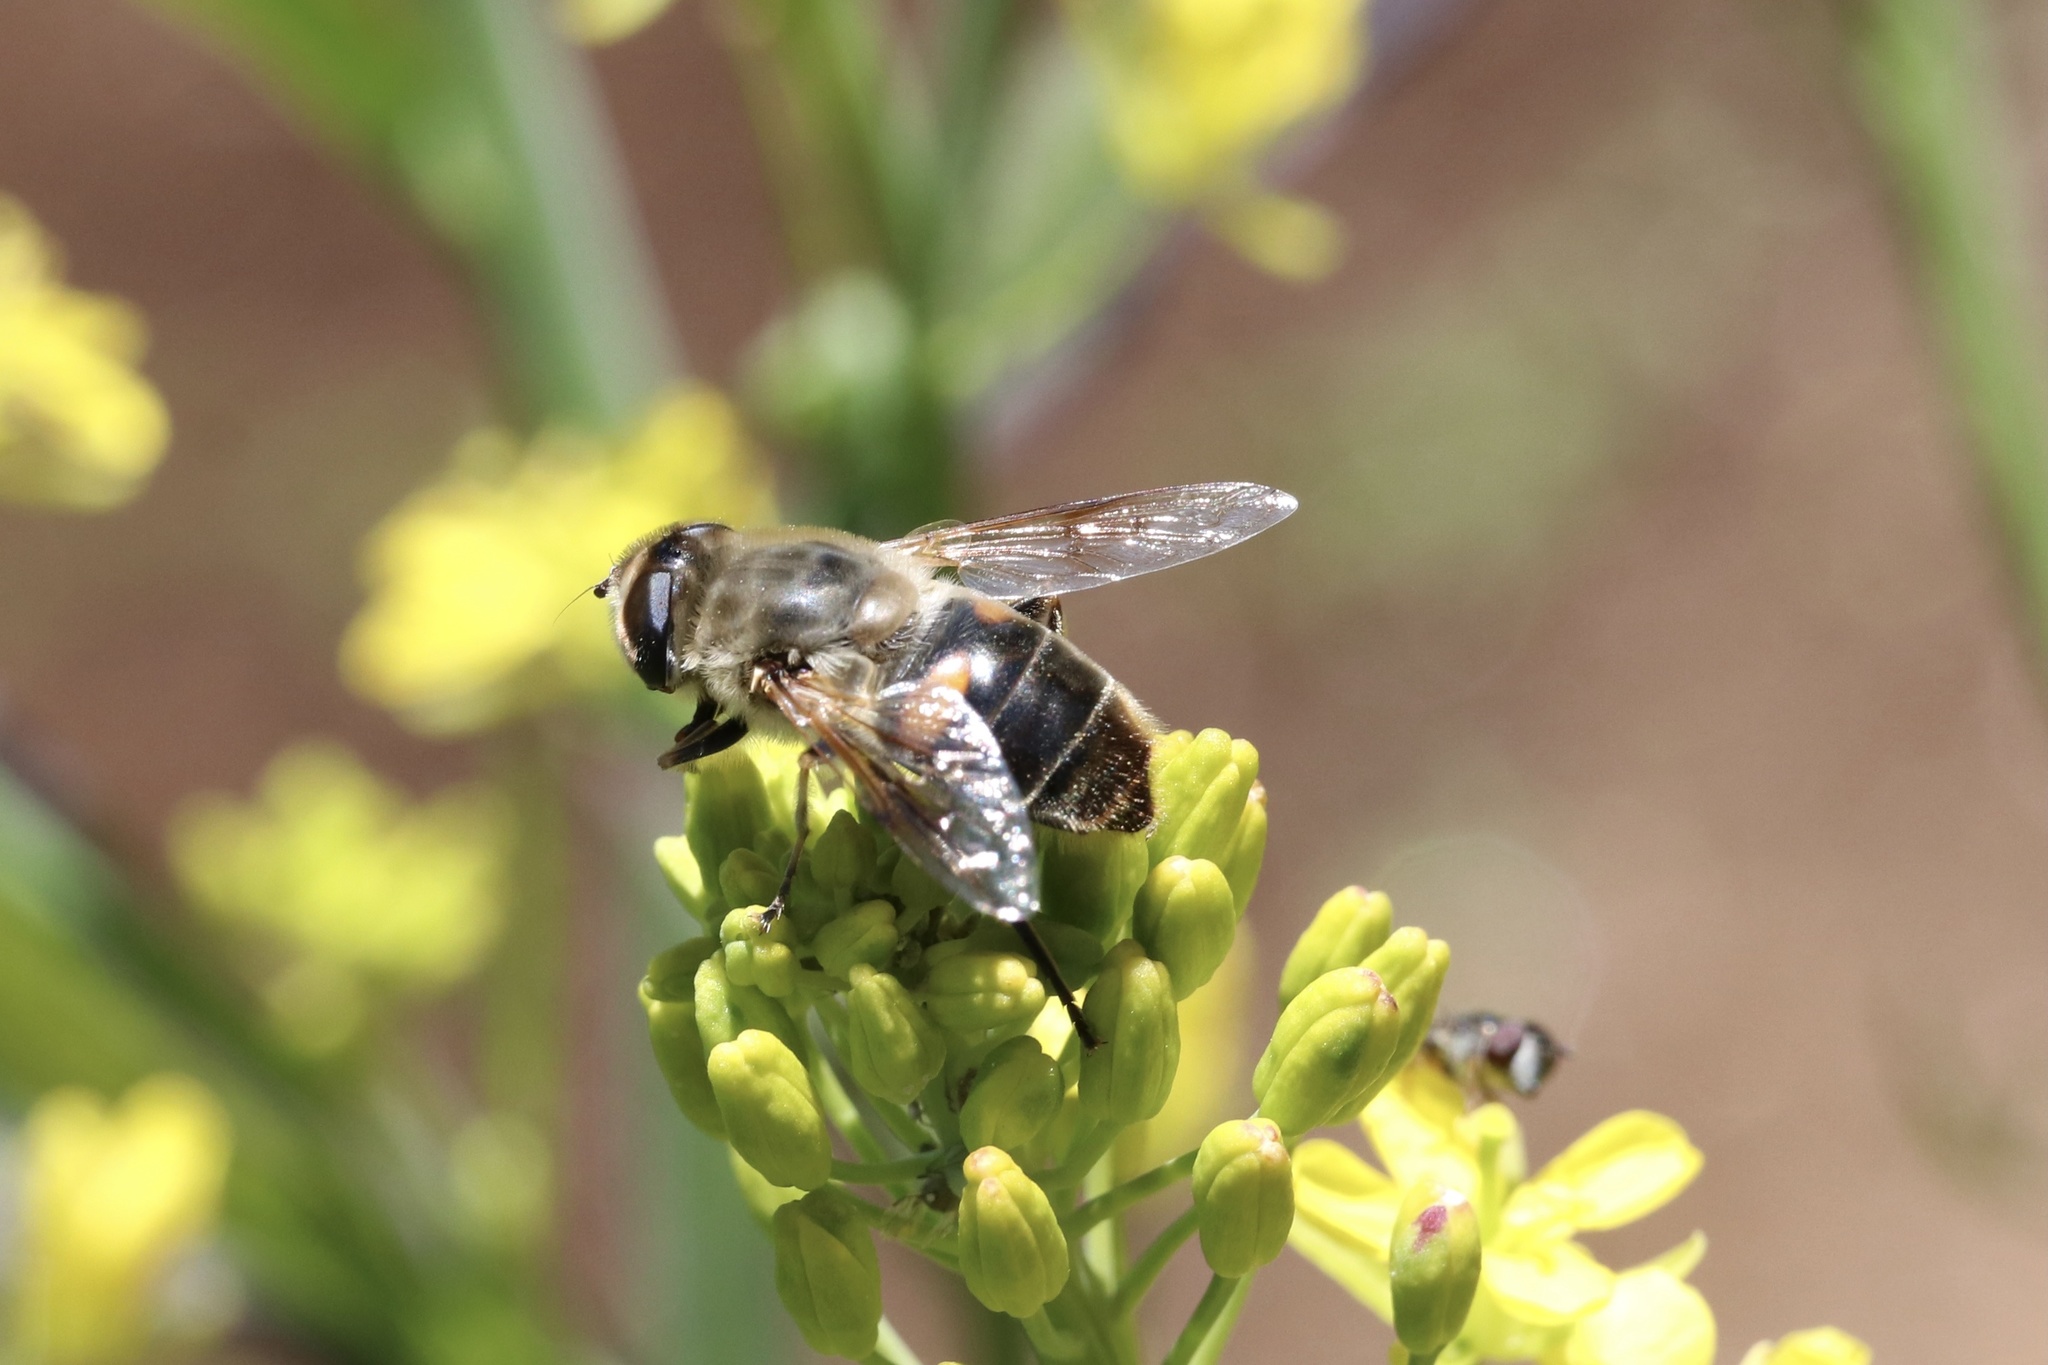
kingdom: Animalia
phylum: Arthropoda
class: Insecta
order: Diptera
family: Syrphidae
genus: Eristalis
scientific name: Eristalis tenax
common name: Drone fly
